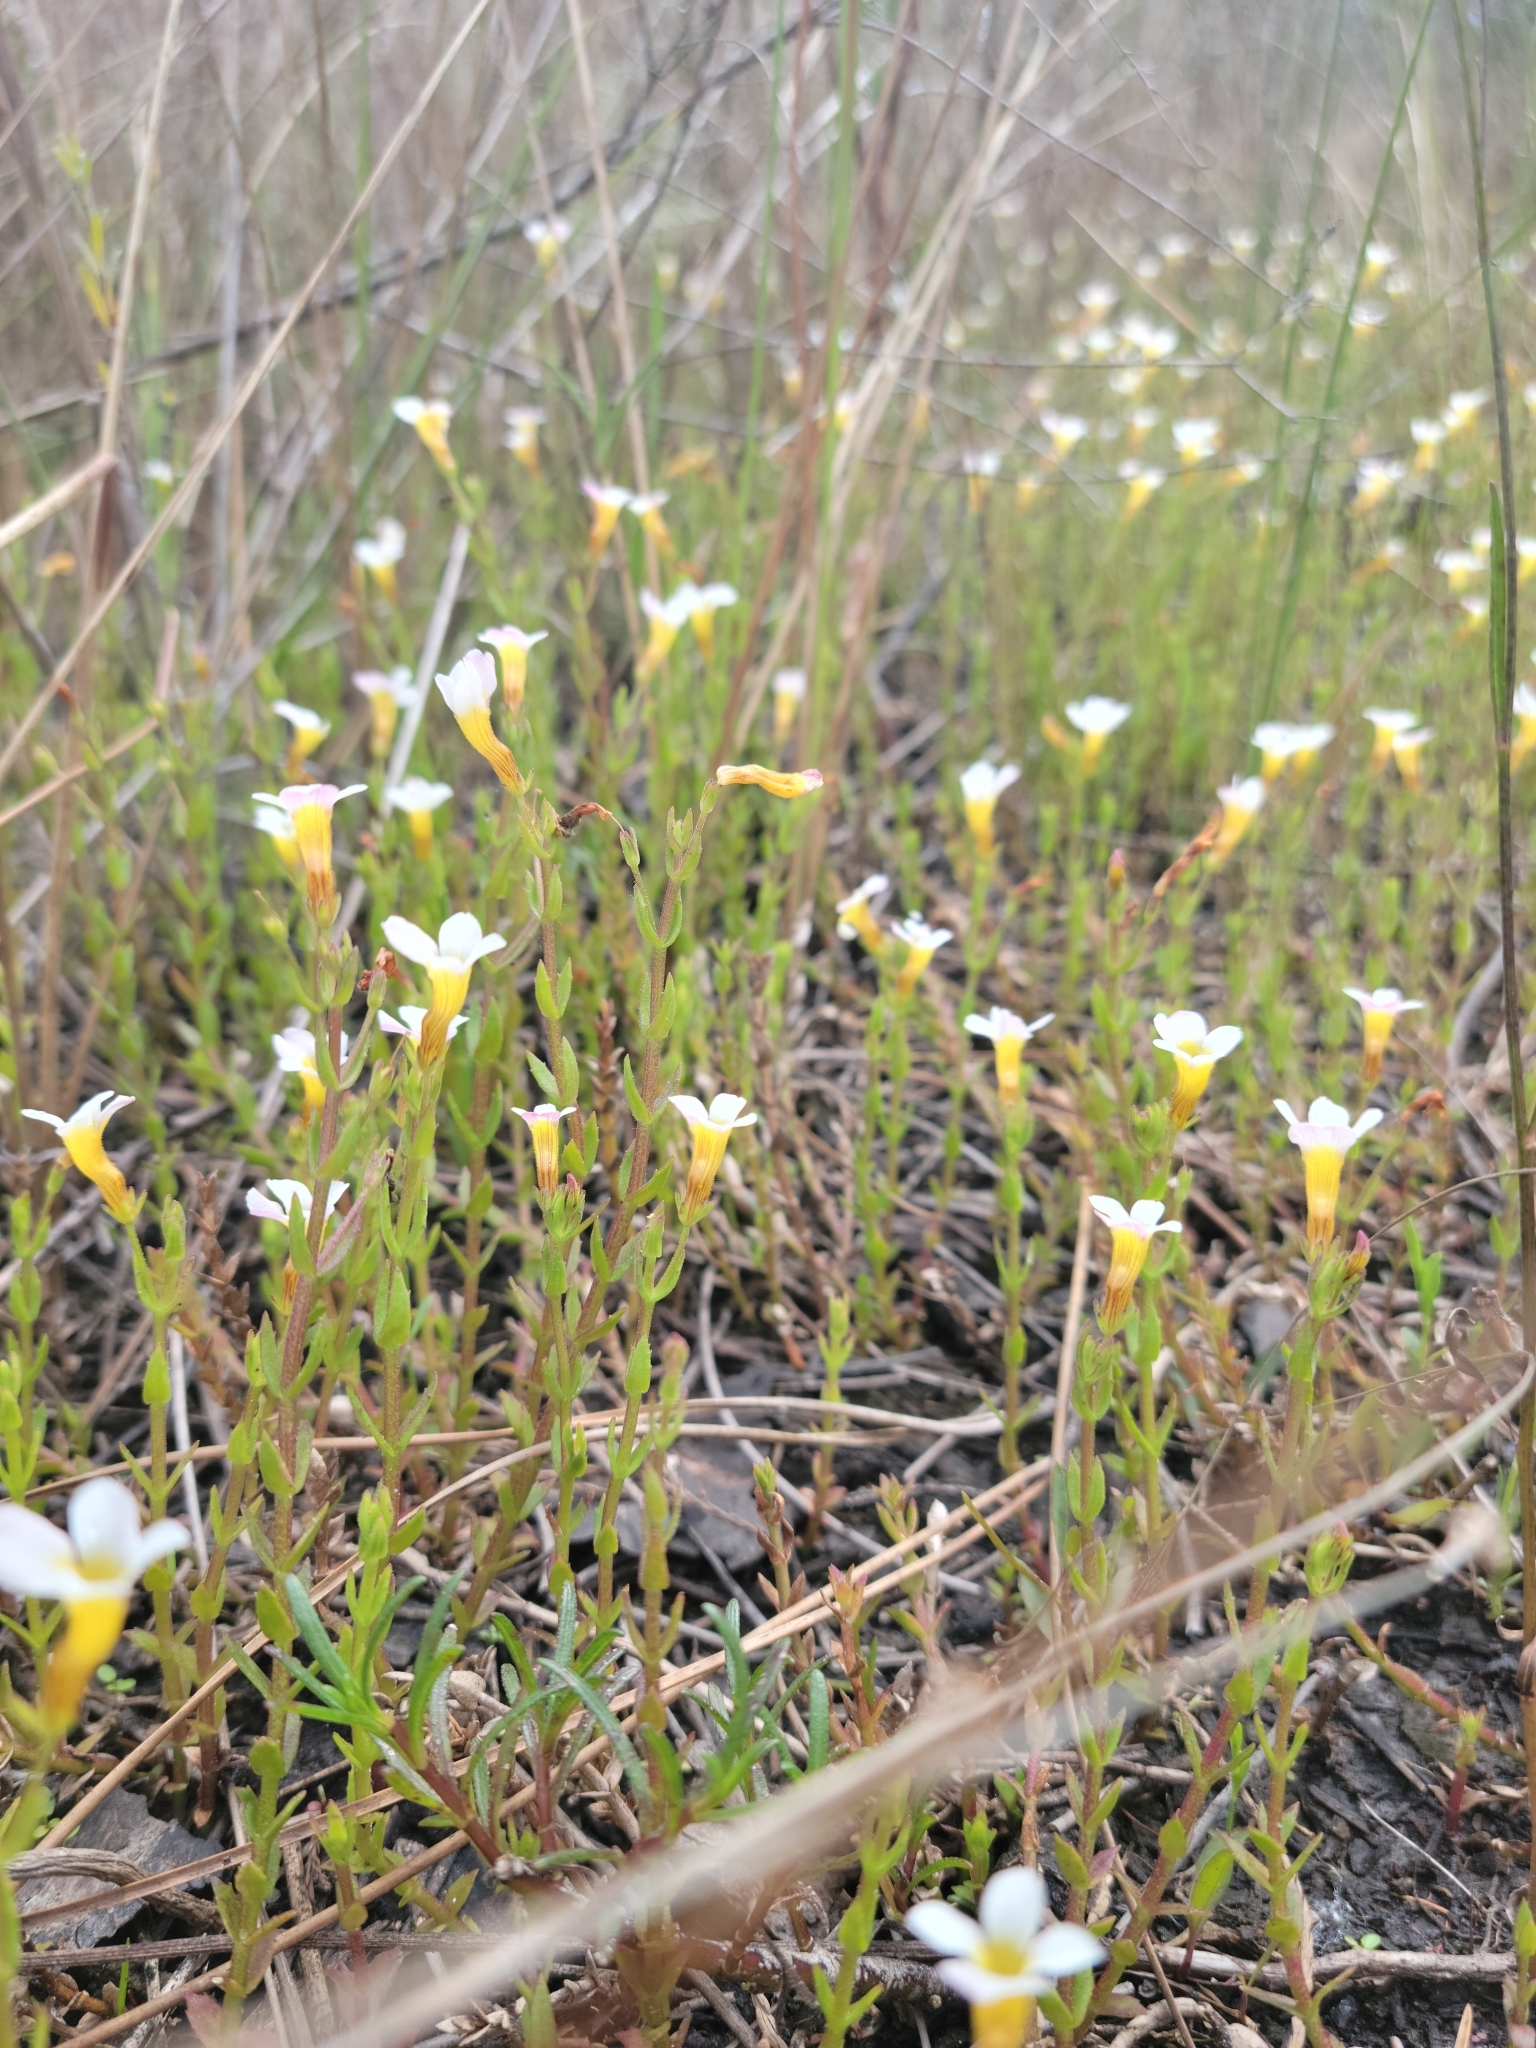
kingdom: Plantae
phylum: Tracheophyta
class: Magnoliopsida
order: Lamiales
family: Plantaginaceae
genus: Gratiola
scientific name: Gratiola ramosa
